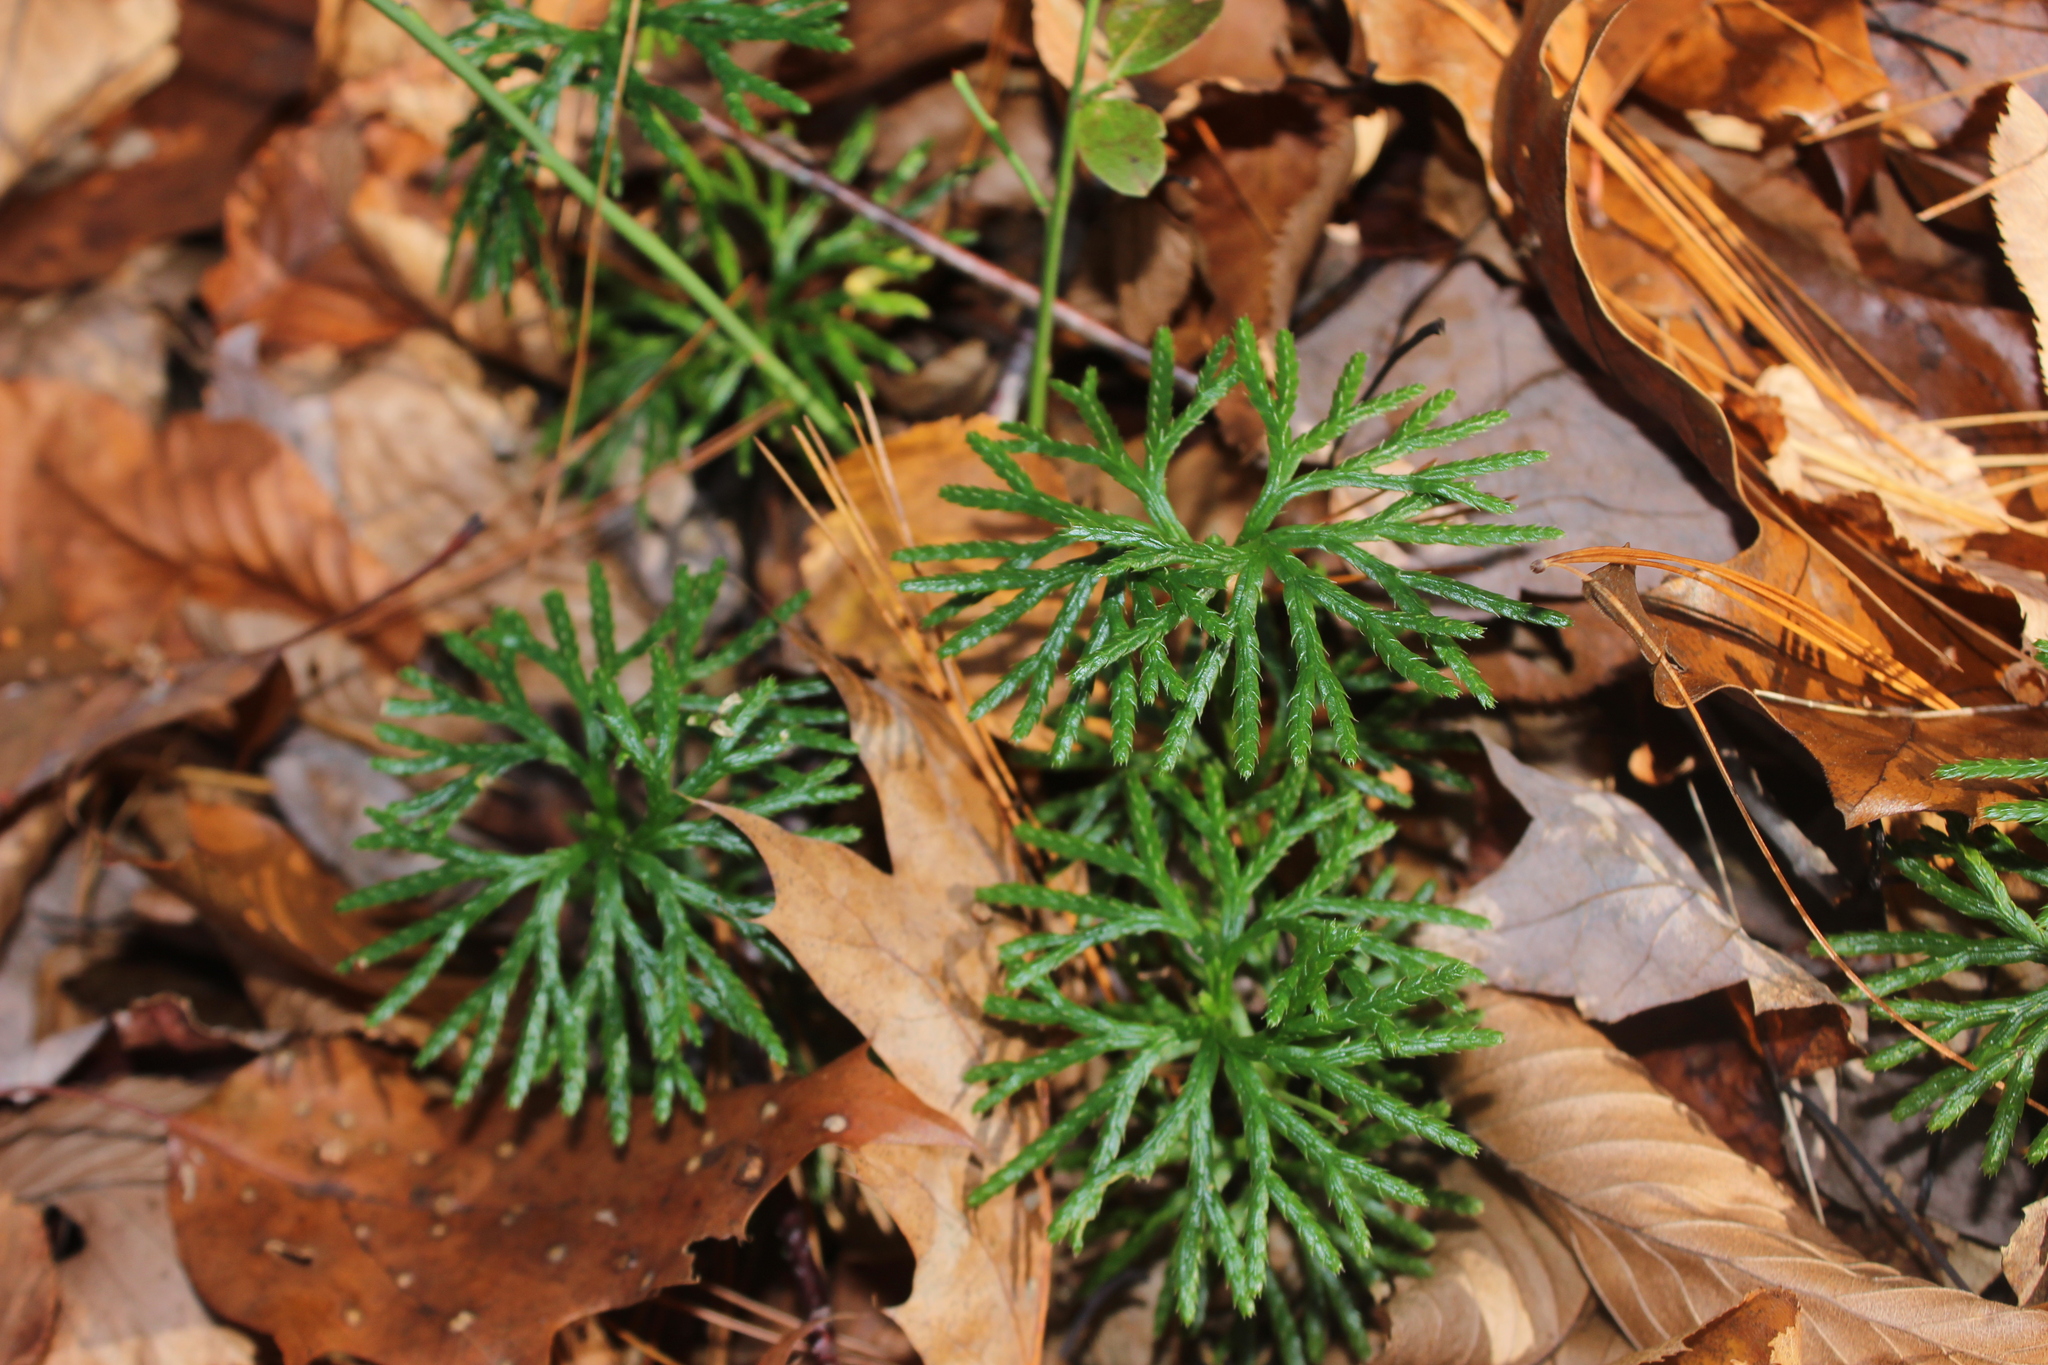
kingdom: Plantae
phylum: Tracheophyta
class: Lycopodiopsida
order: Lycopodiales
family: Lycopodiaceae
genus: Diphasiastrum
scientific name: Diphasiastrum digitatum
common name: Southern running-pine
